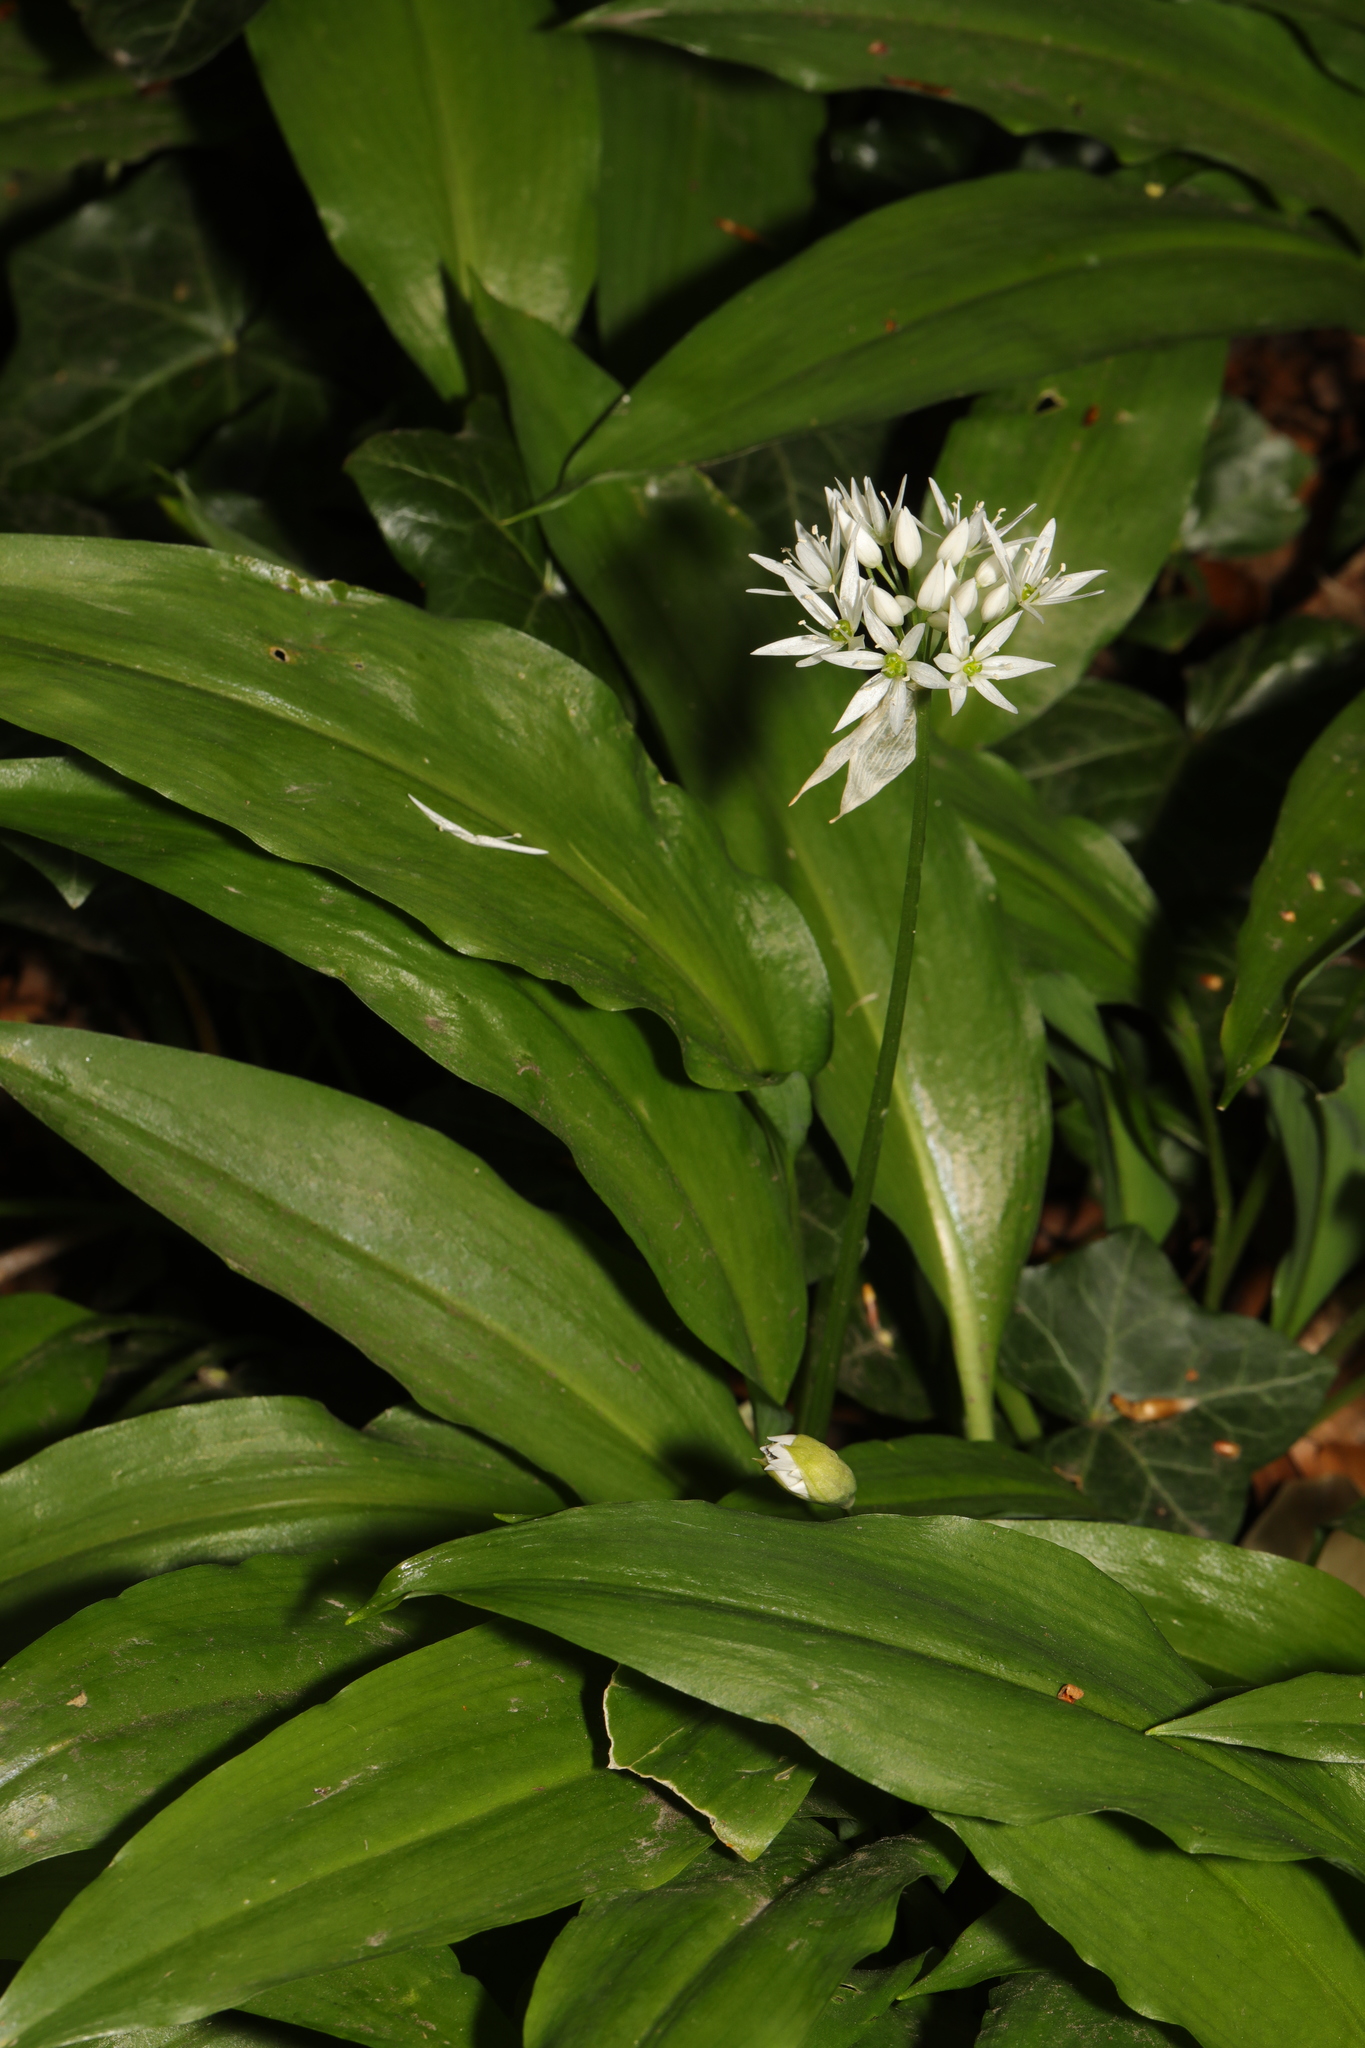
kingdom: Plantae
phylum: Tracheophyta
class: Liliopsida
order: Asparagales
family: Amaryllidaceae
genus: Allium
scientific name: Allium ursinum
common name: Ramsons
